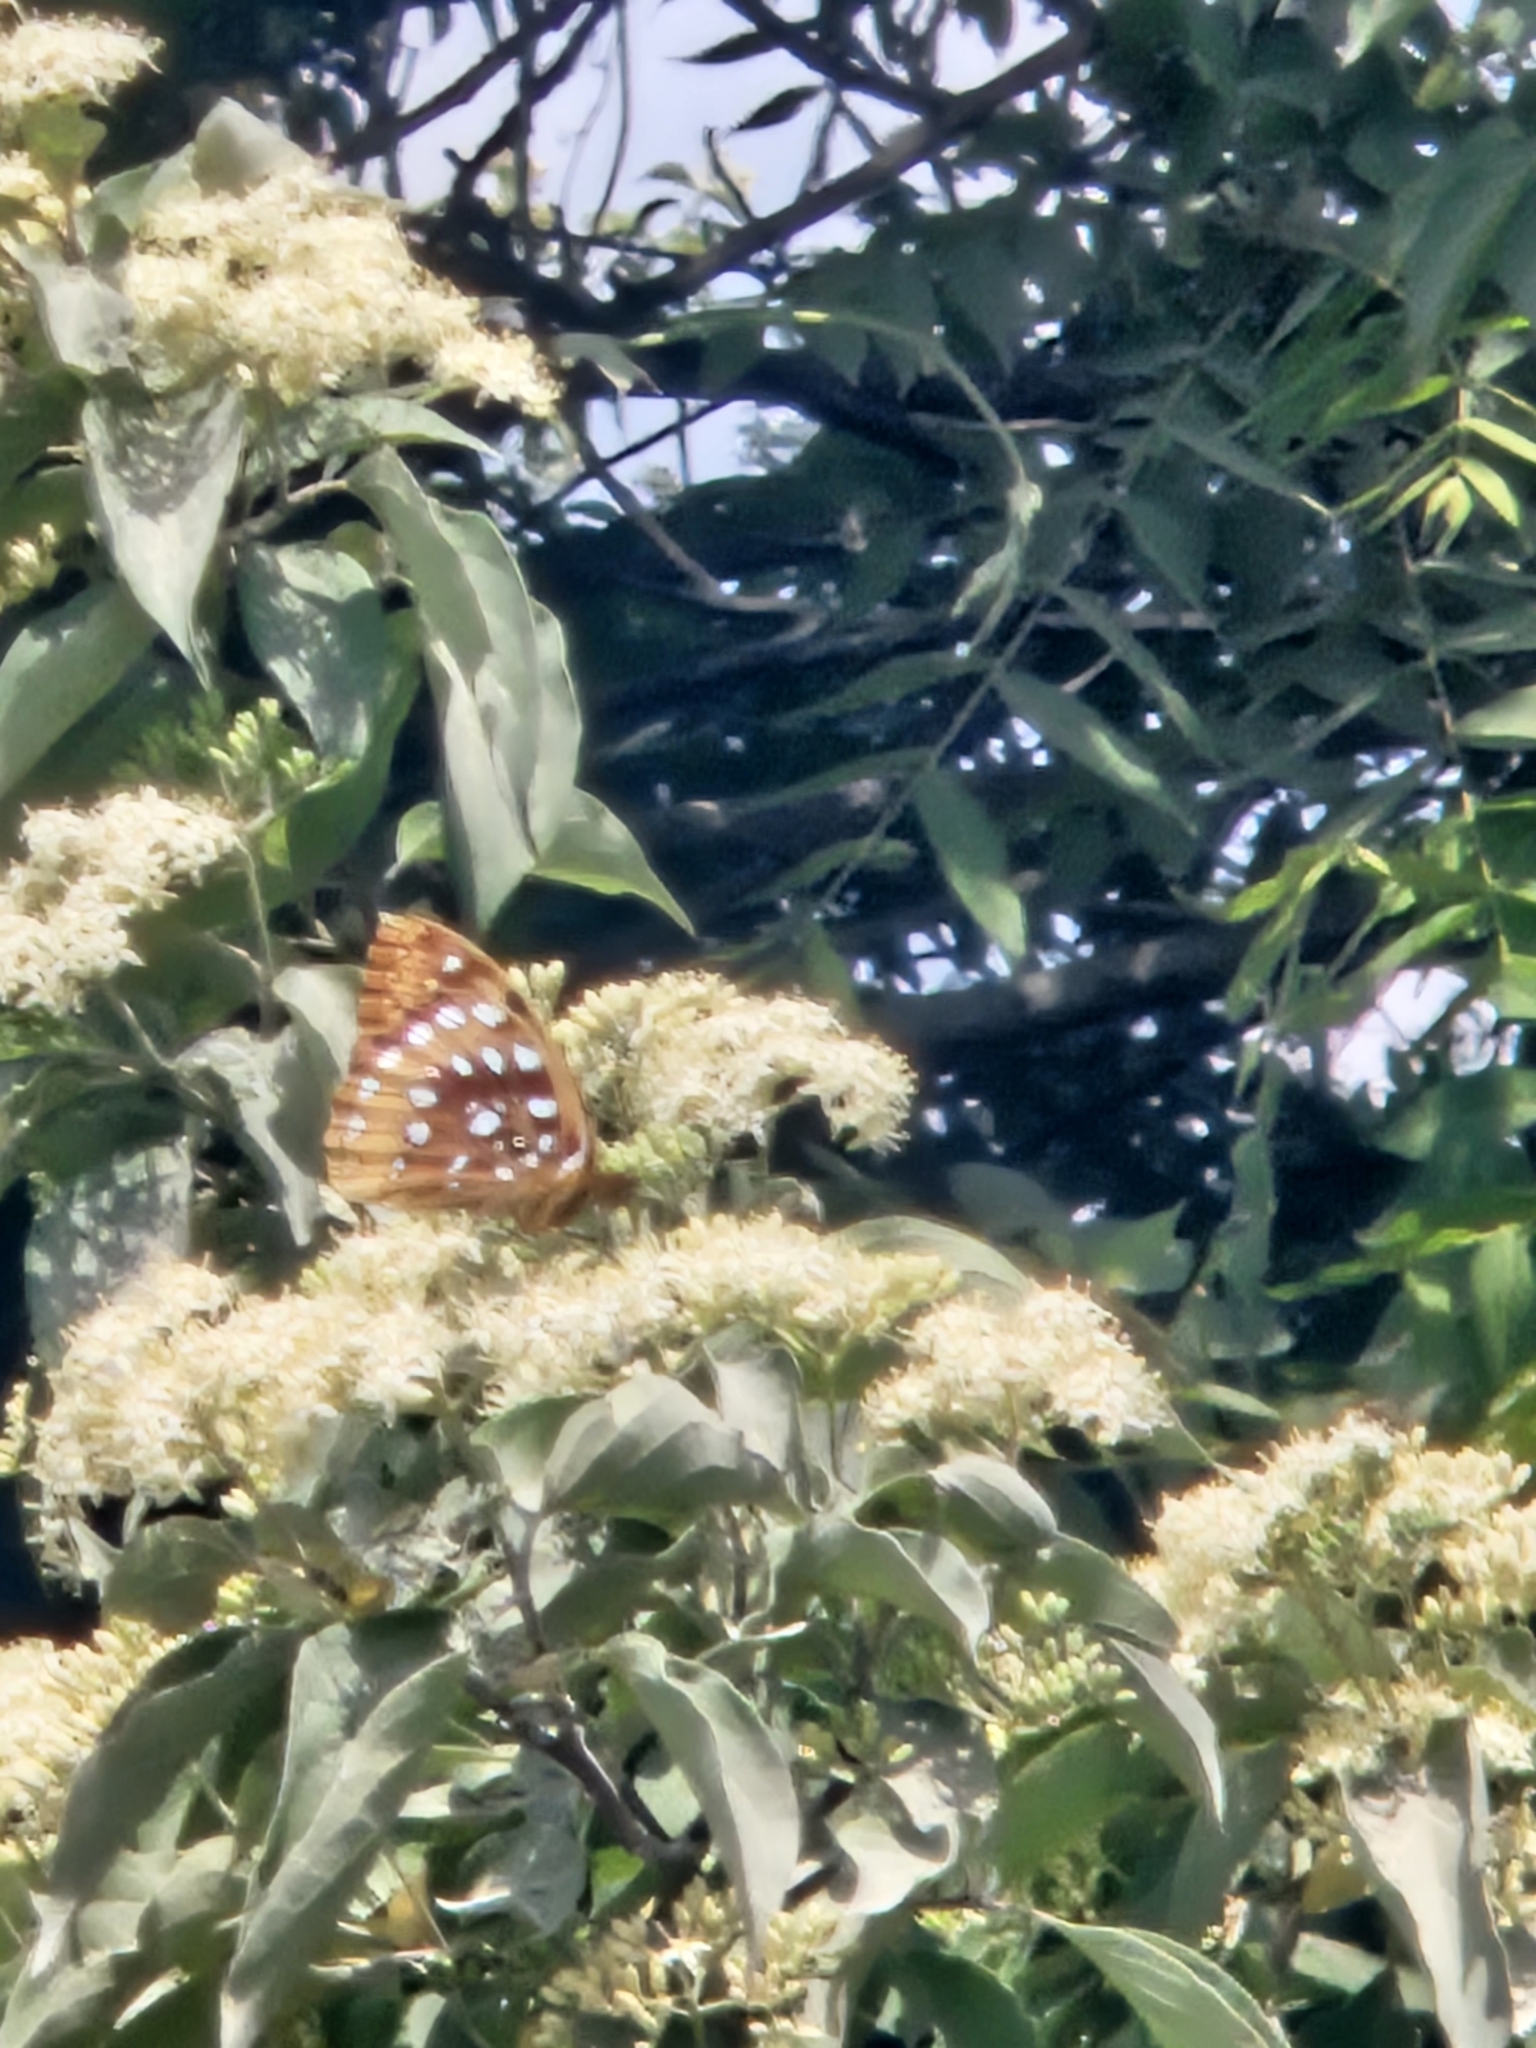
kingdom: Animalia
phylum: Arthropoda
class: Insecta
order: Lepidoptera
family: Nymphalidae
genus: Speyeria
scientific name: Speyeria cybele
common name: Great spangled fritillary
